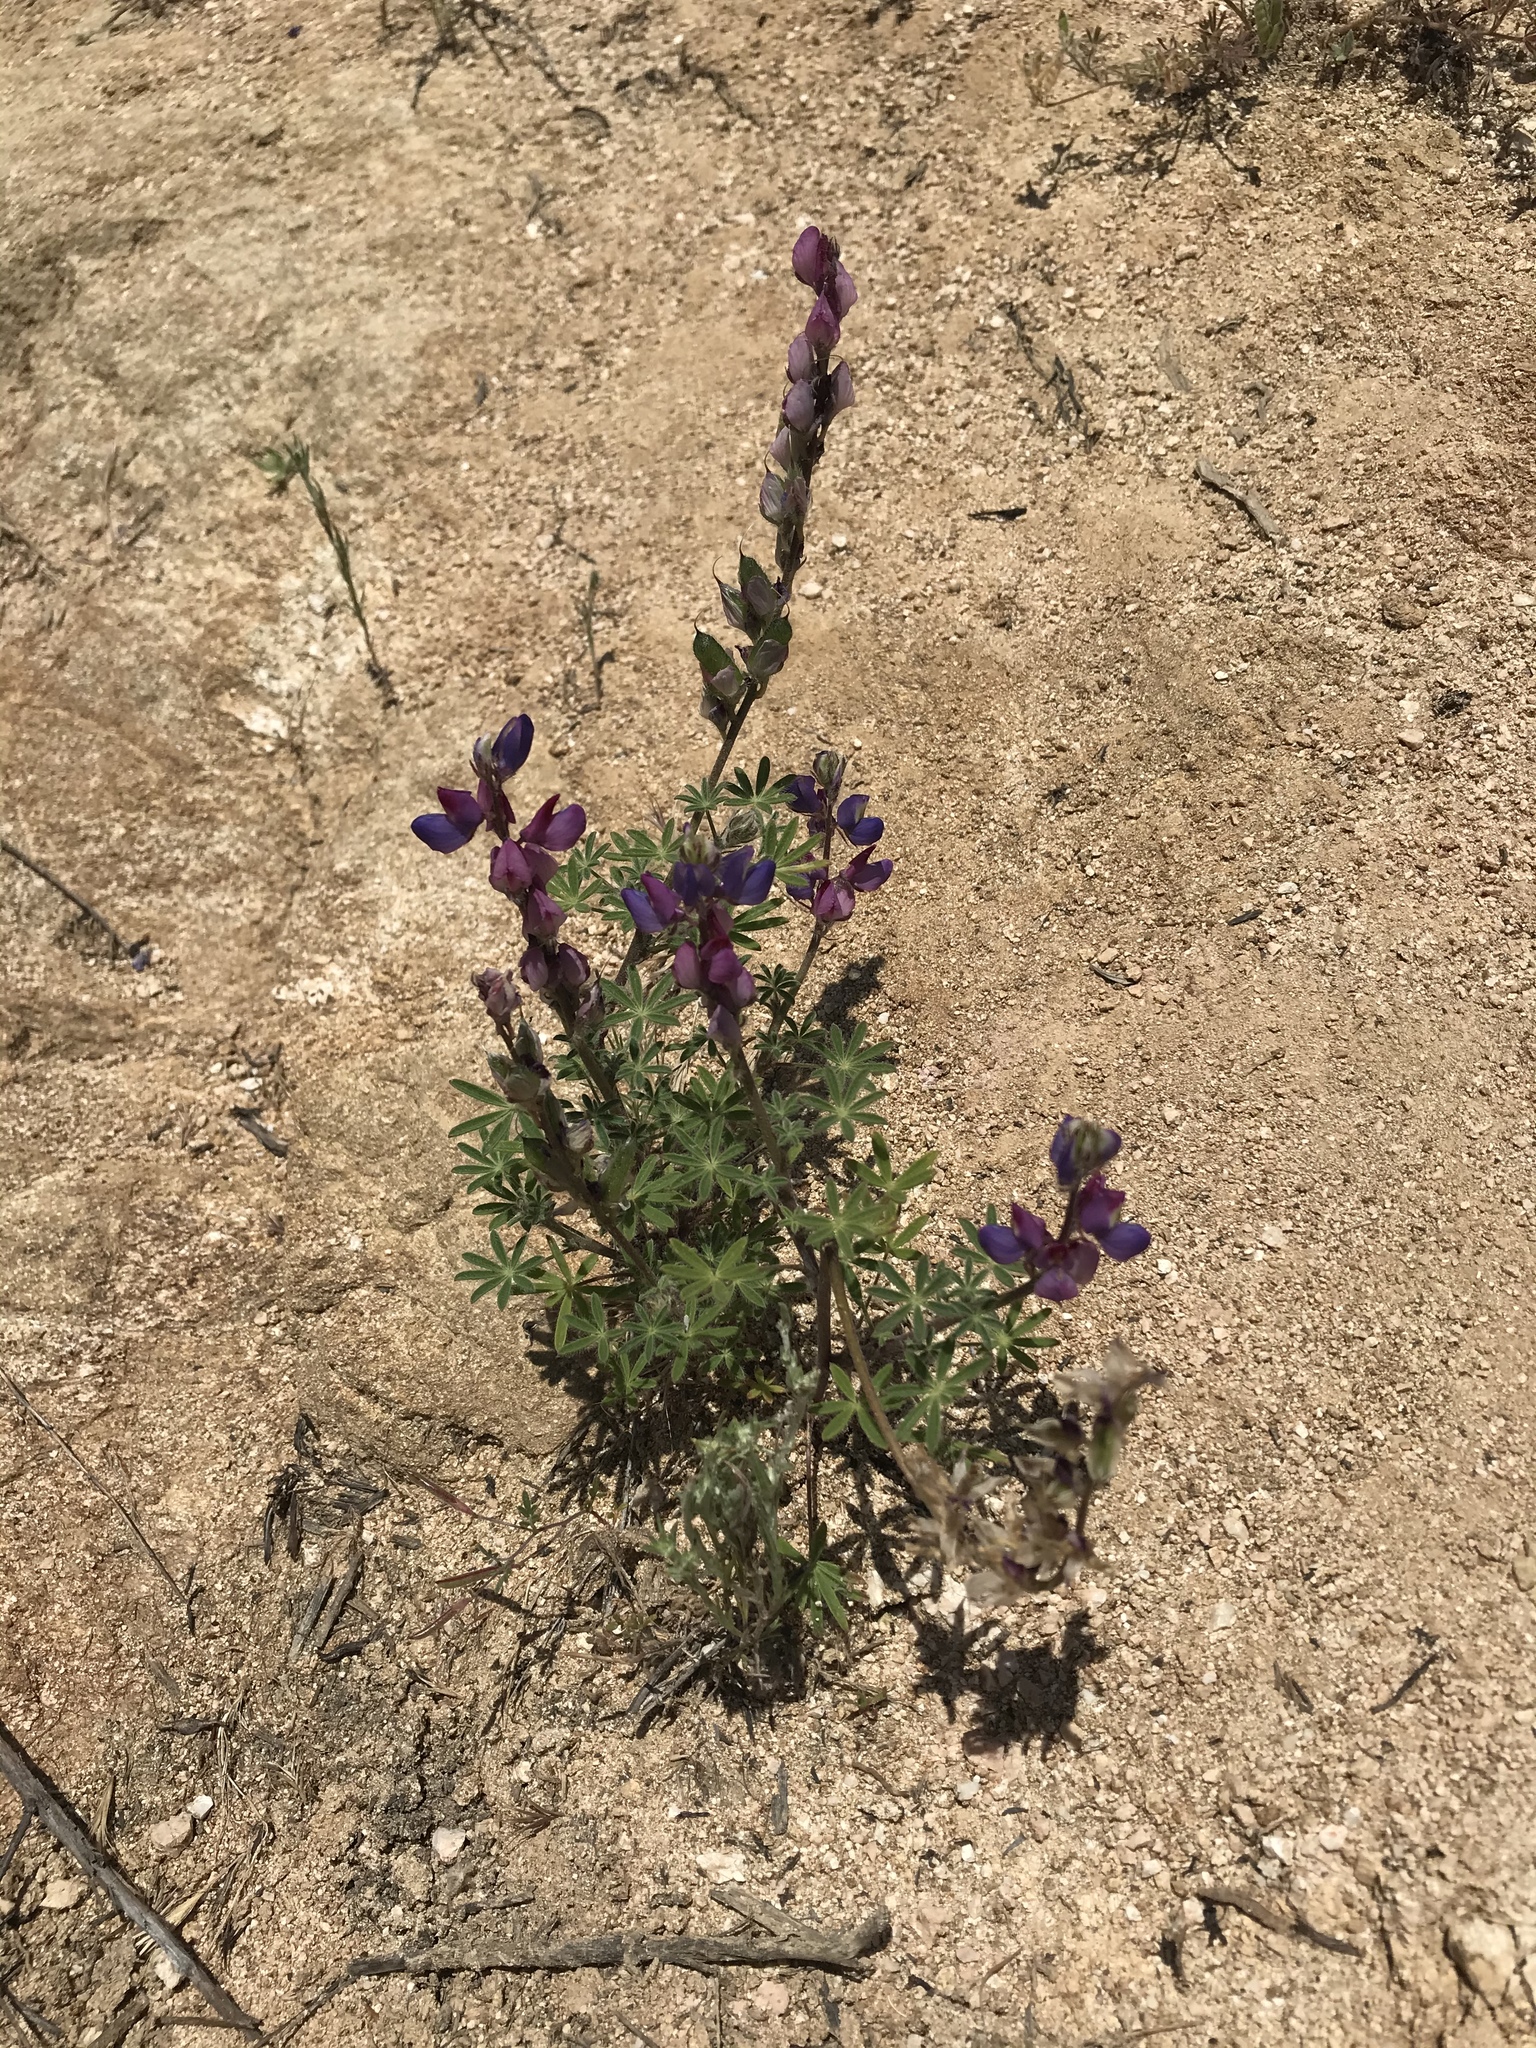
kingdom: Plantae
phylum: Tracheophyta
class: Magnoliopsida
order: Fabales
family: Fabaceae
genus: Lupinus
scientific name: Lupinus sparsiflorus
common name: Coulter's lupine
